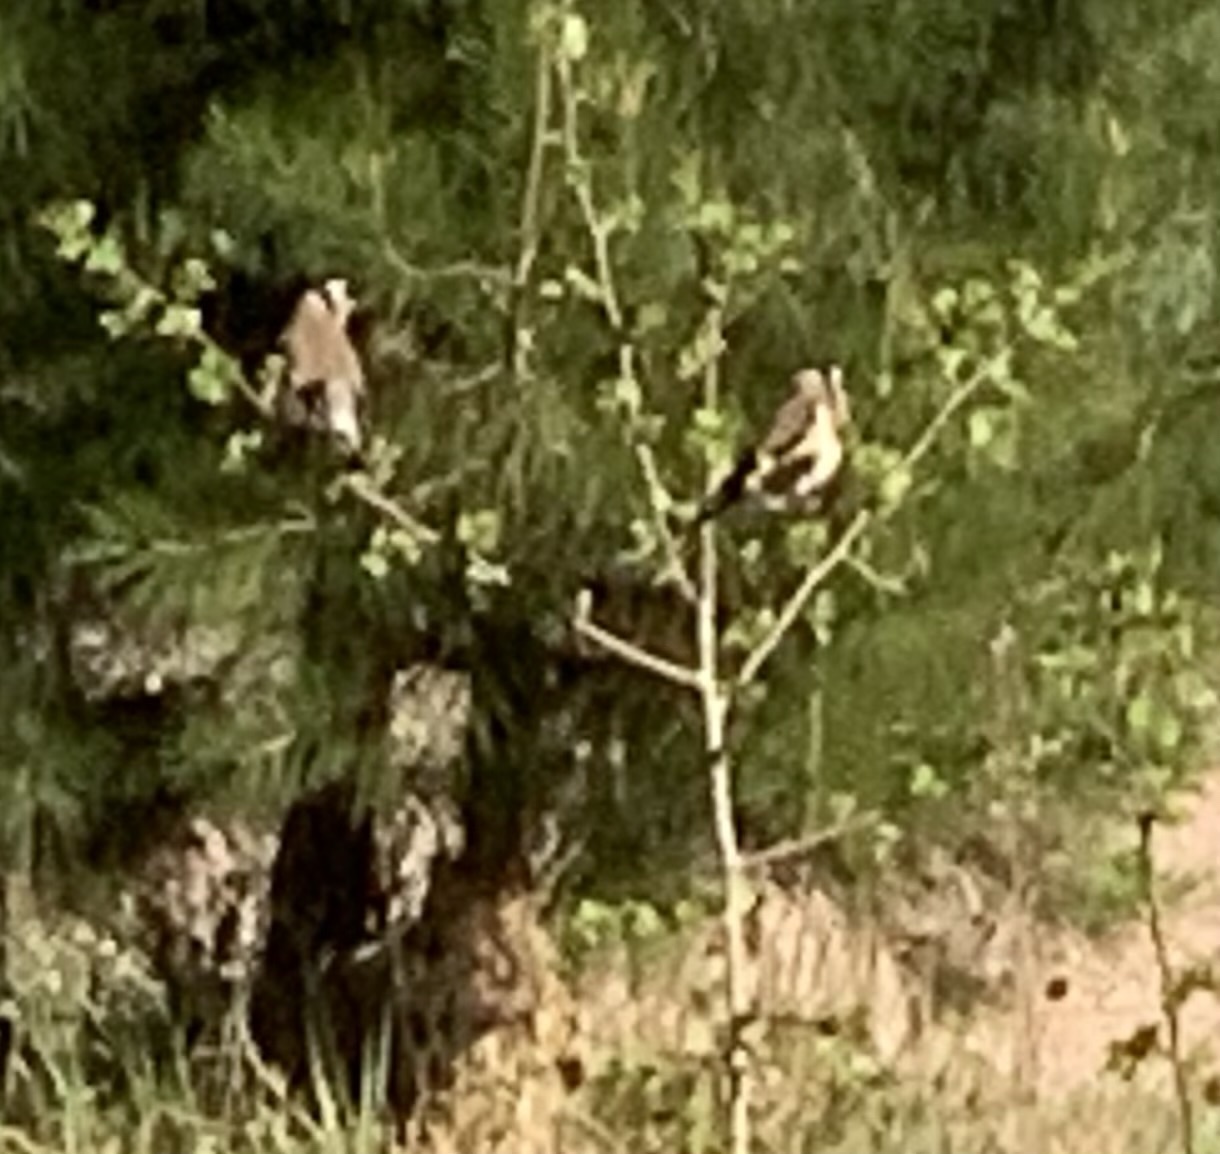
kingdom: Animalia
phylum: Chordata
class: Aves
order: Passeriformes
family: Fringillidae
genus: Carduelis
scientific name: Carduelis carduelis
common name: European goldfinch
